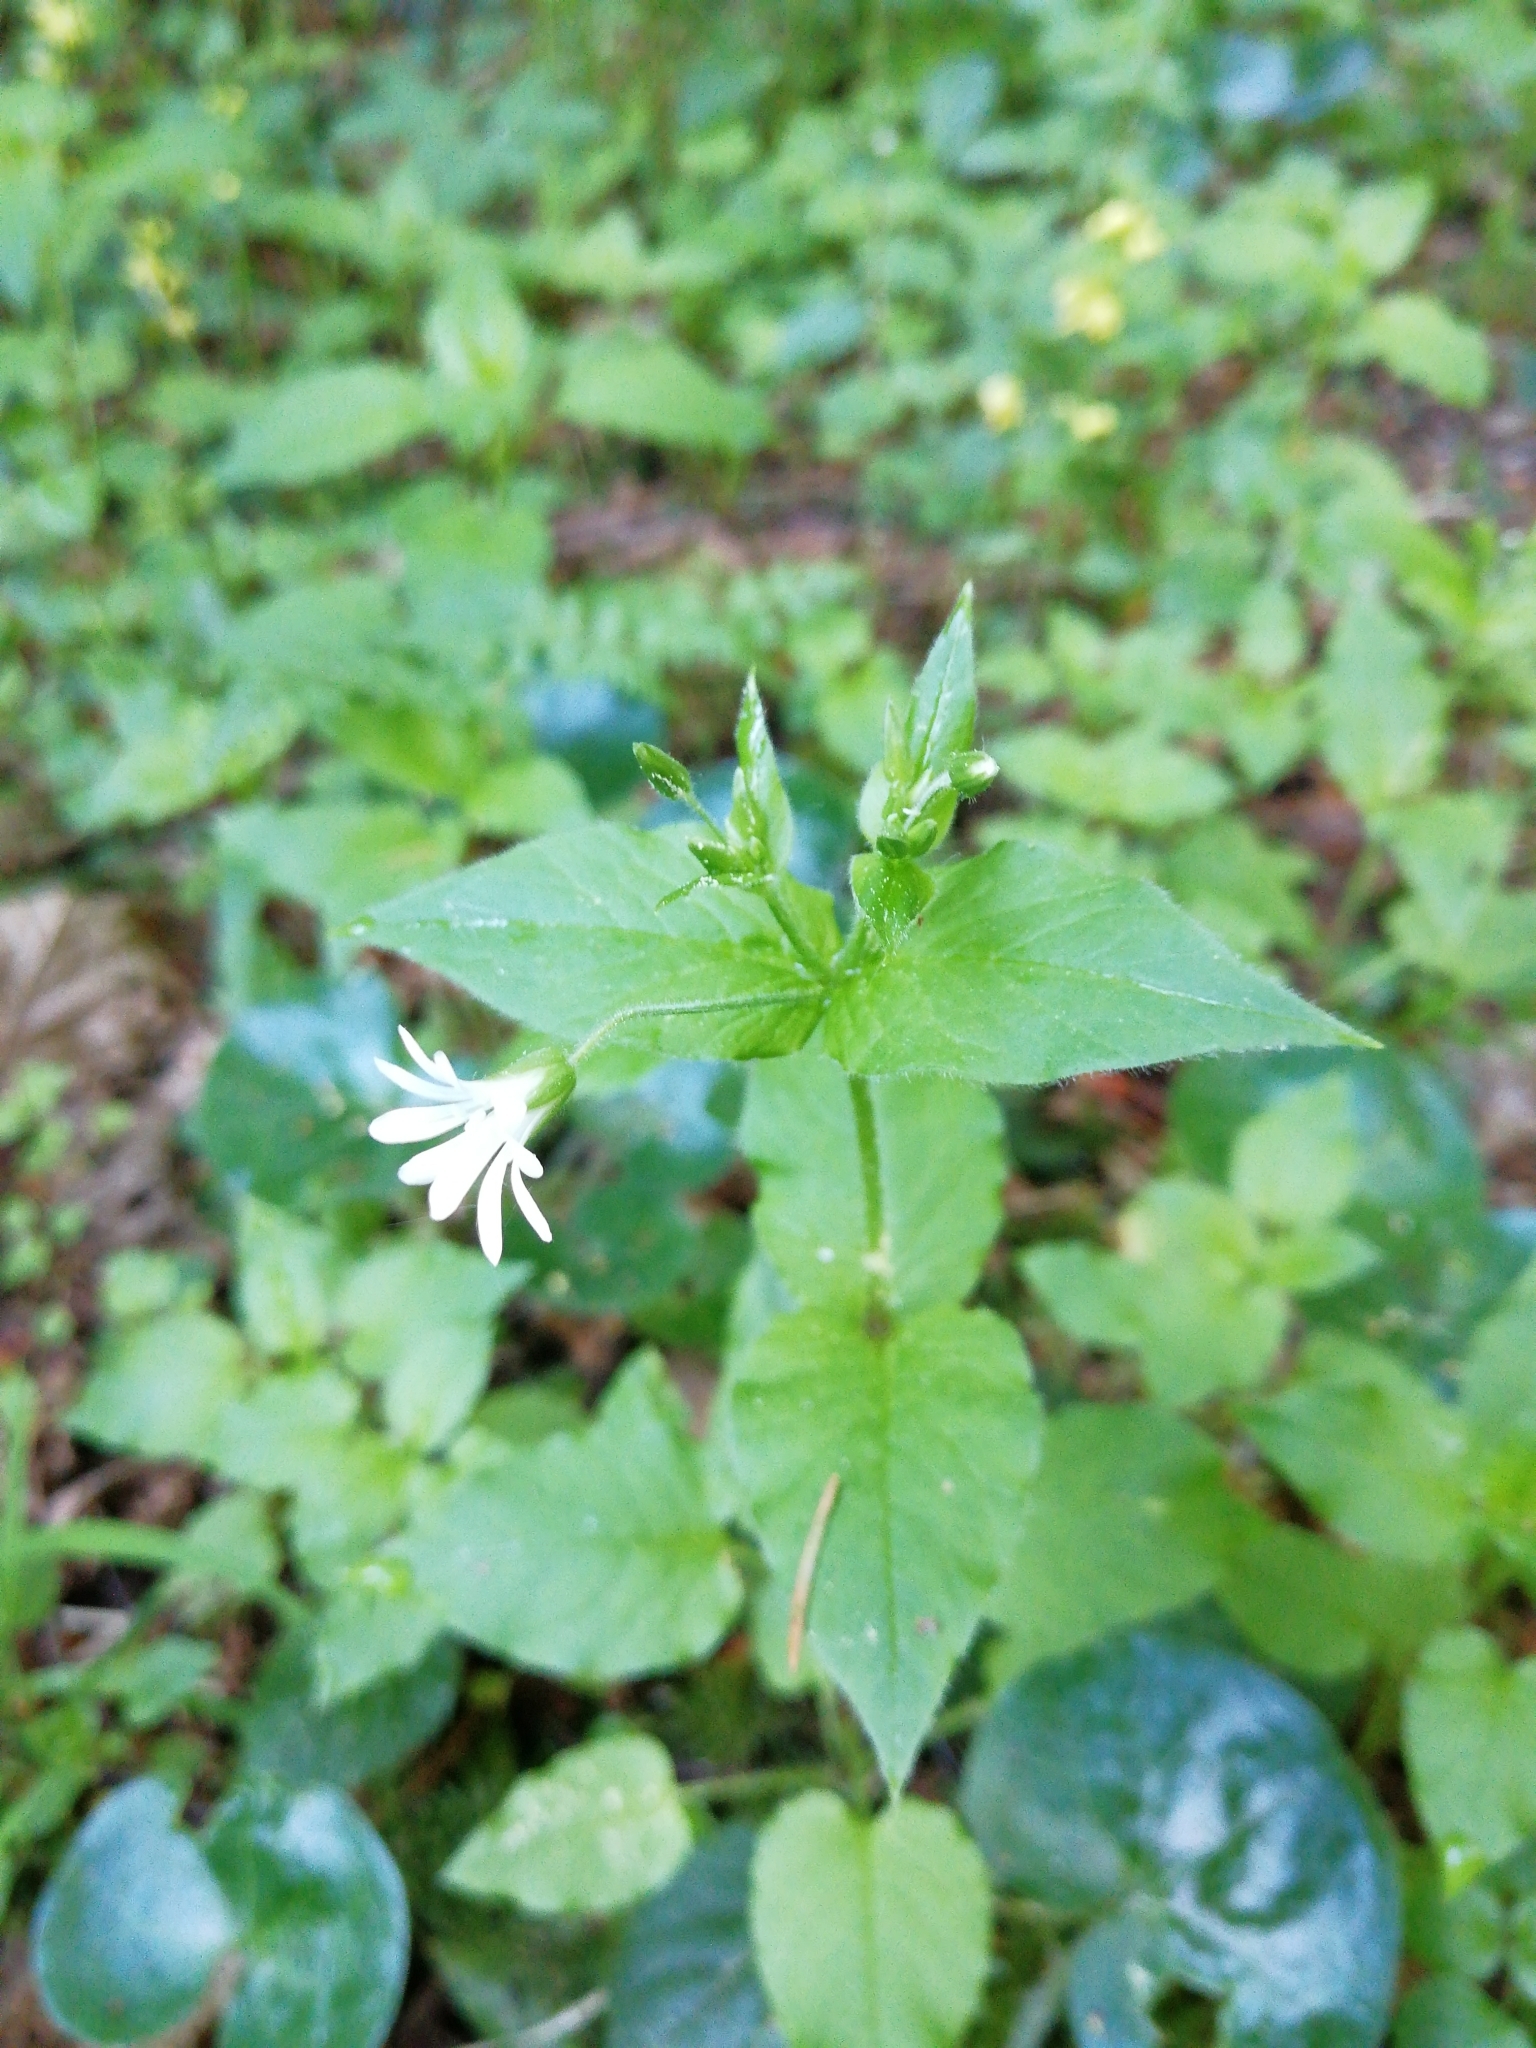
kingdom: Plantae
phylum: Tracheophyta
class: Magnoliopsida
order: Caryophyllales
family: Caryophyllaceae
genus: Stellaria
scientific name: Stellaria nemorum
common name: Wood stitchwort
